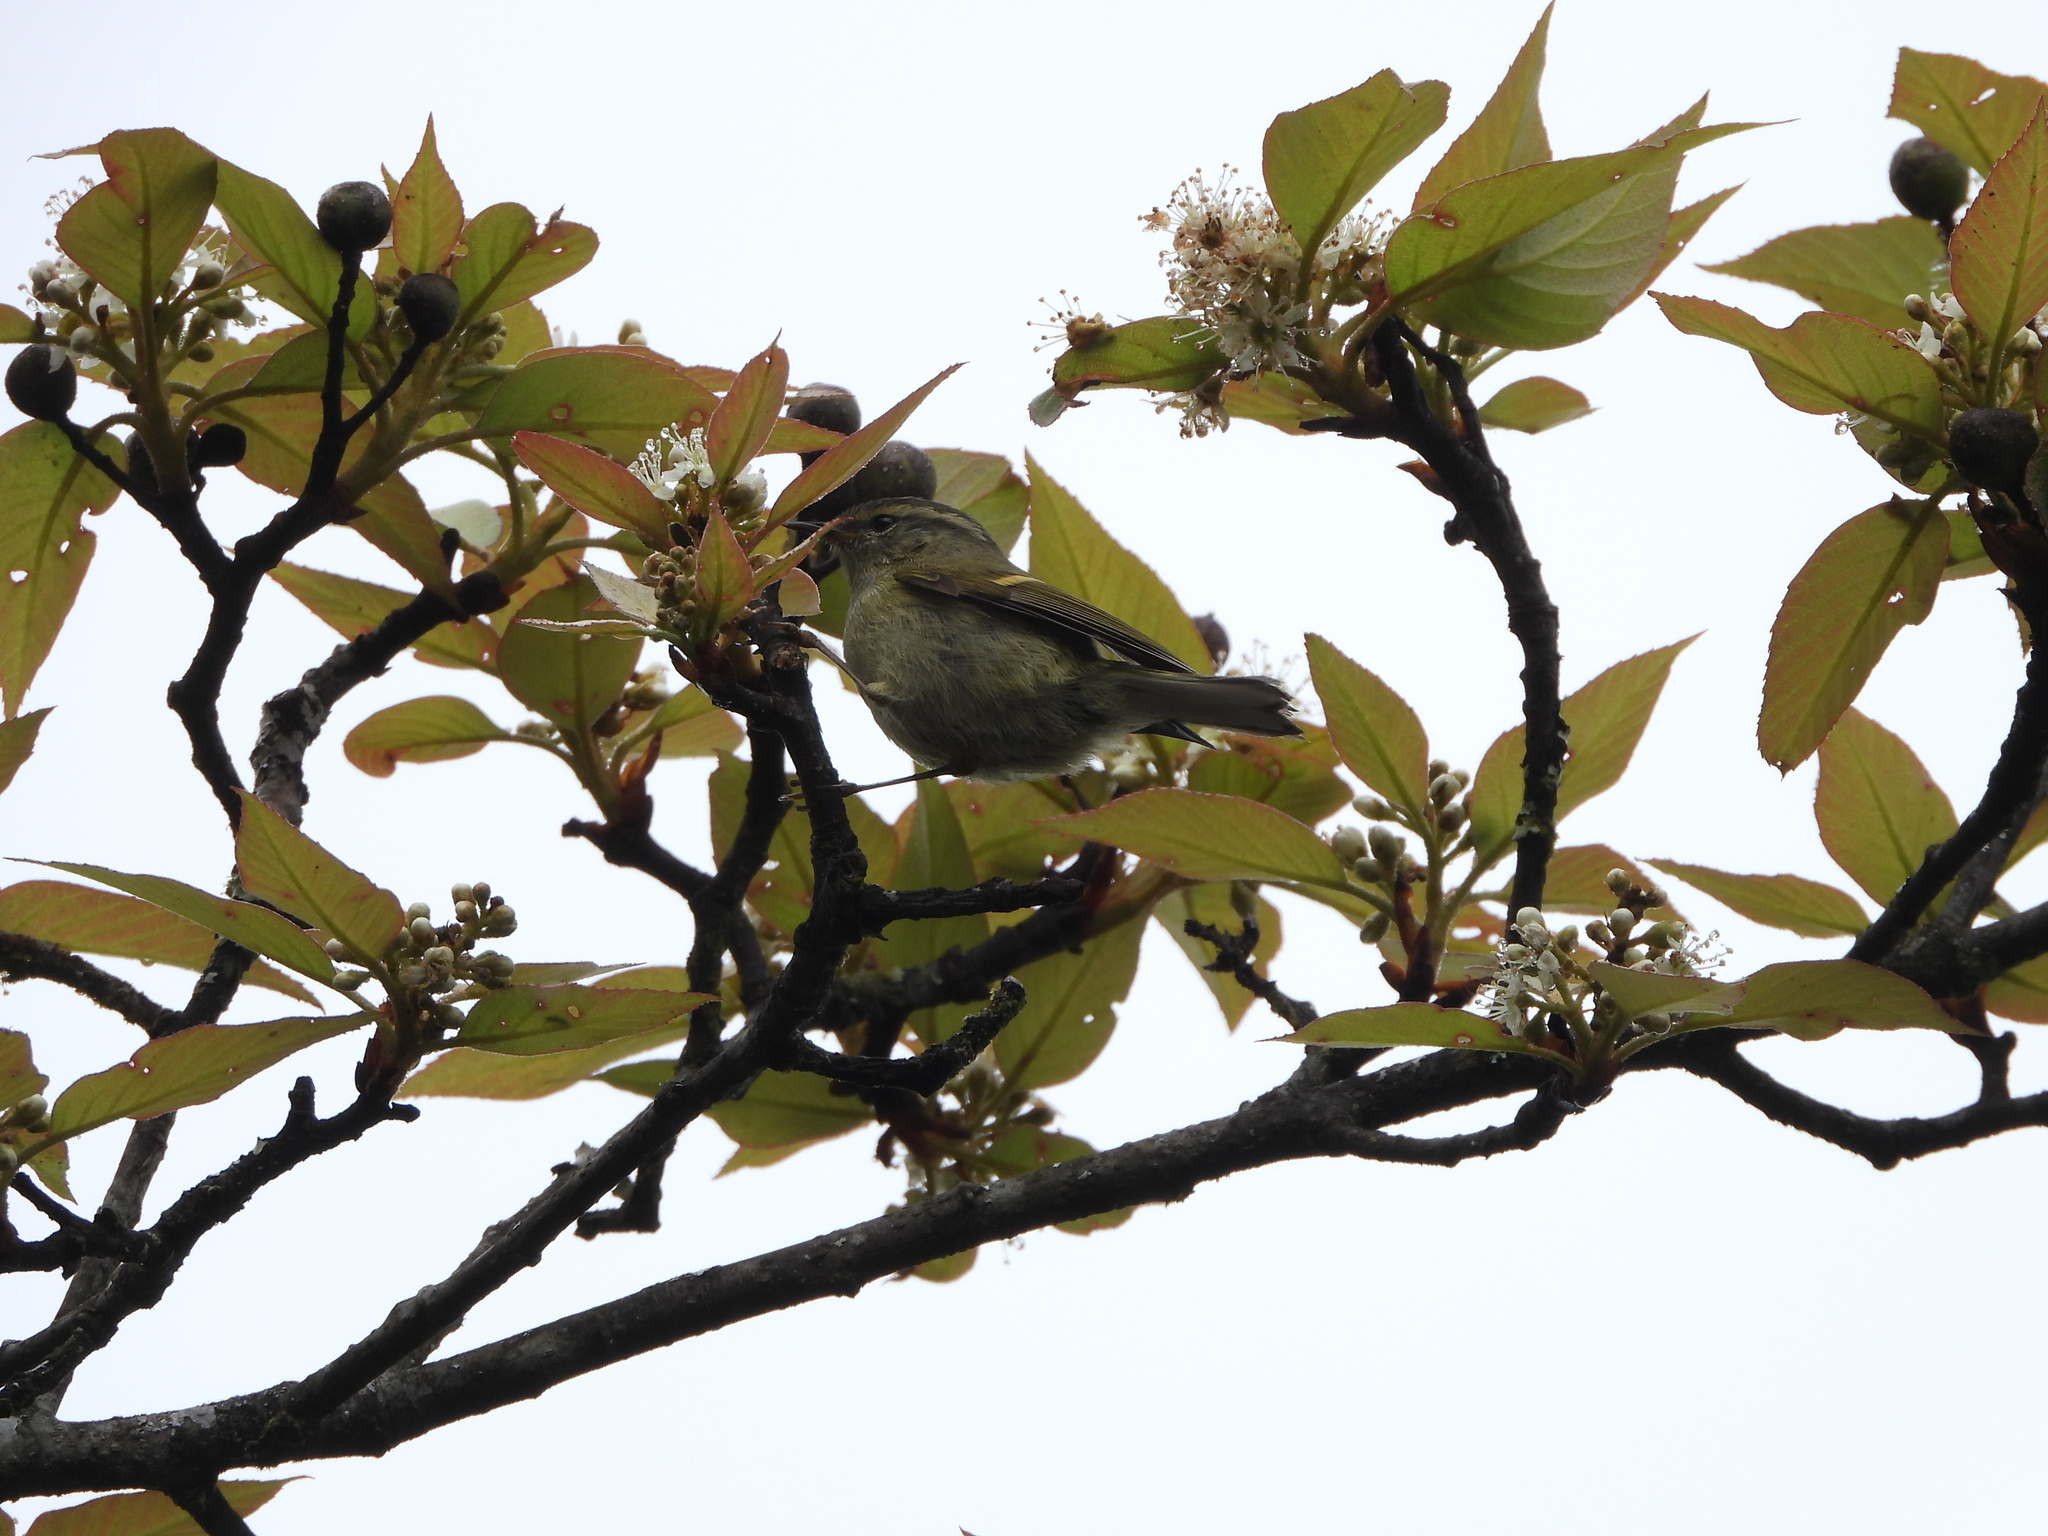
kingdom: Animalia
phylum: Chordata
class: Aves
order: Passeriformes
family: Phylloscopidae
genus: Phylloscopus
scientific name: Phylloscopus pulcher
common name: Buff-barred warbler
